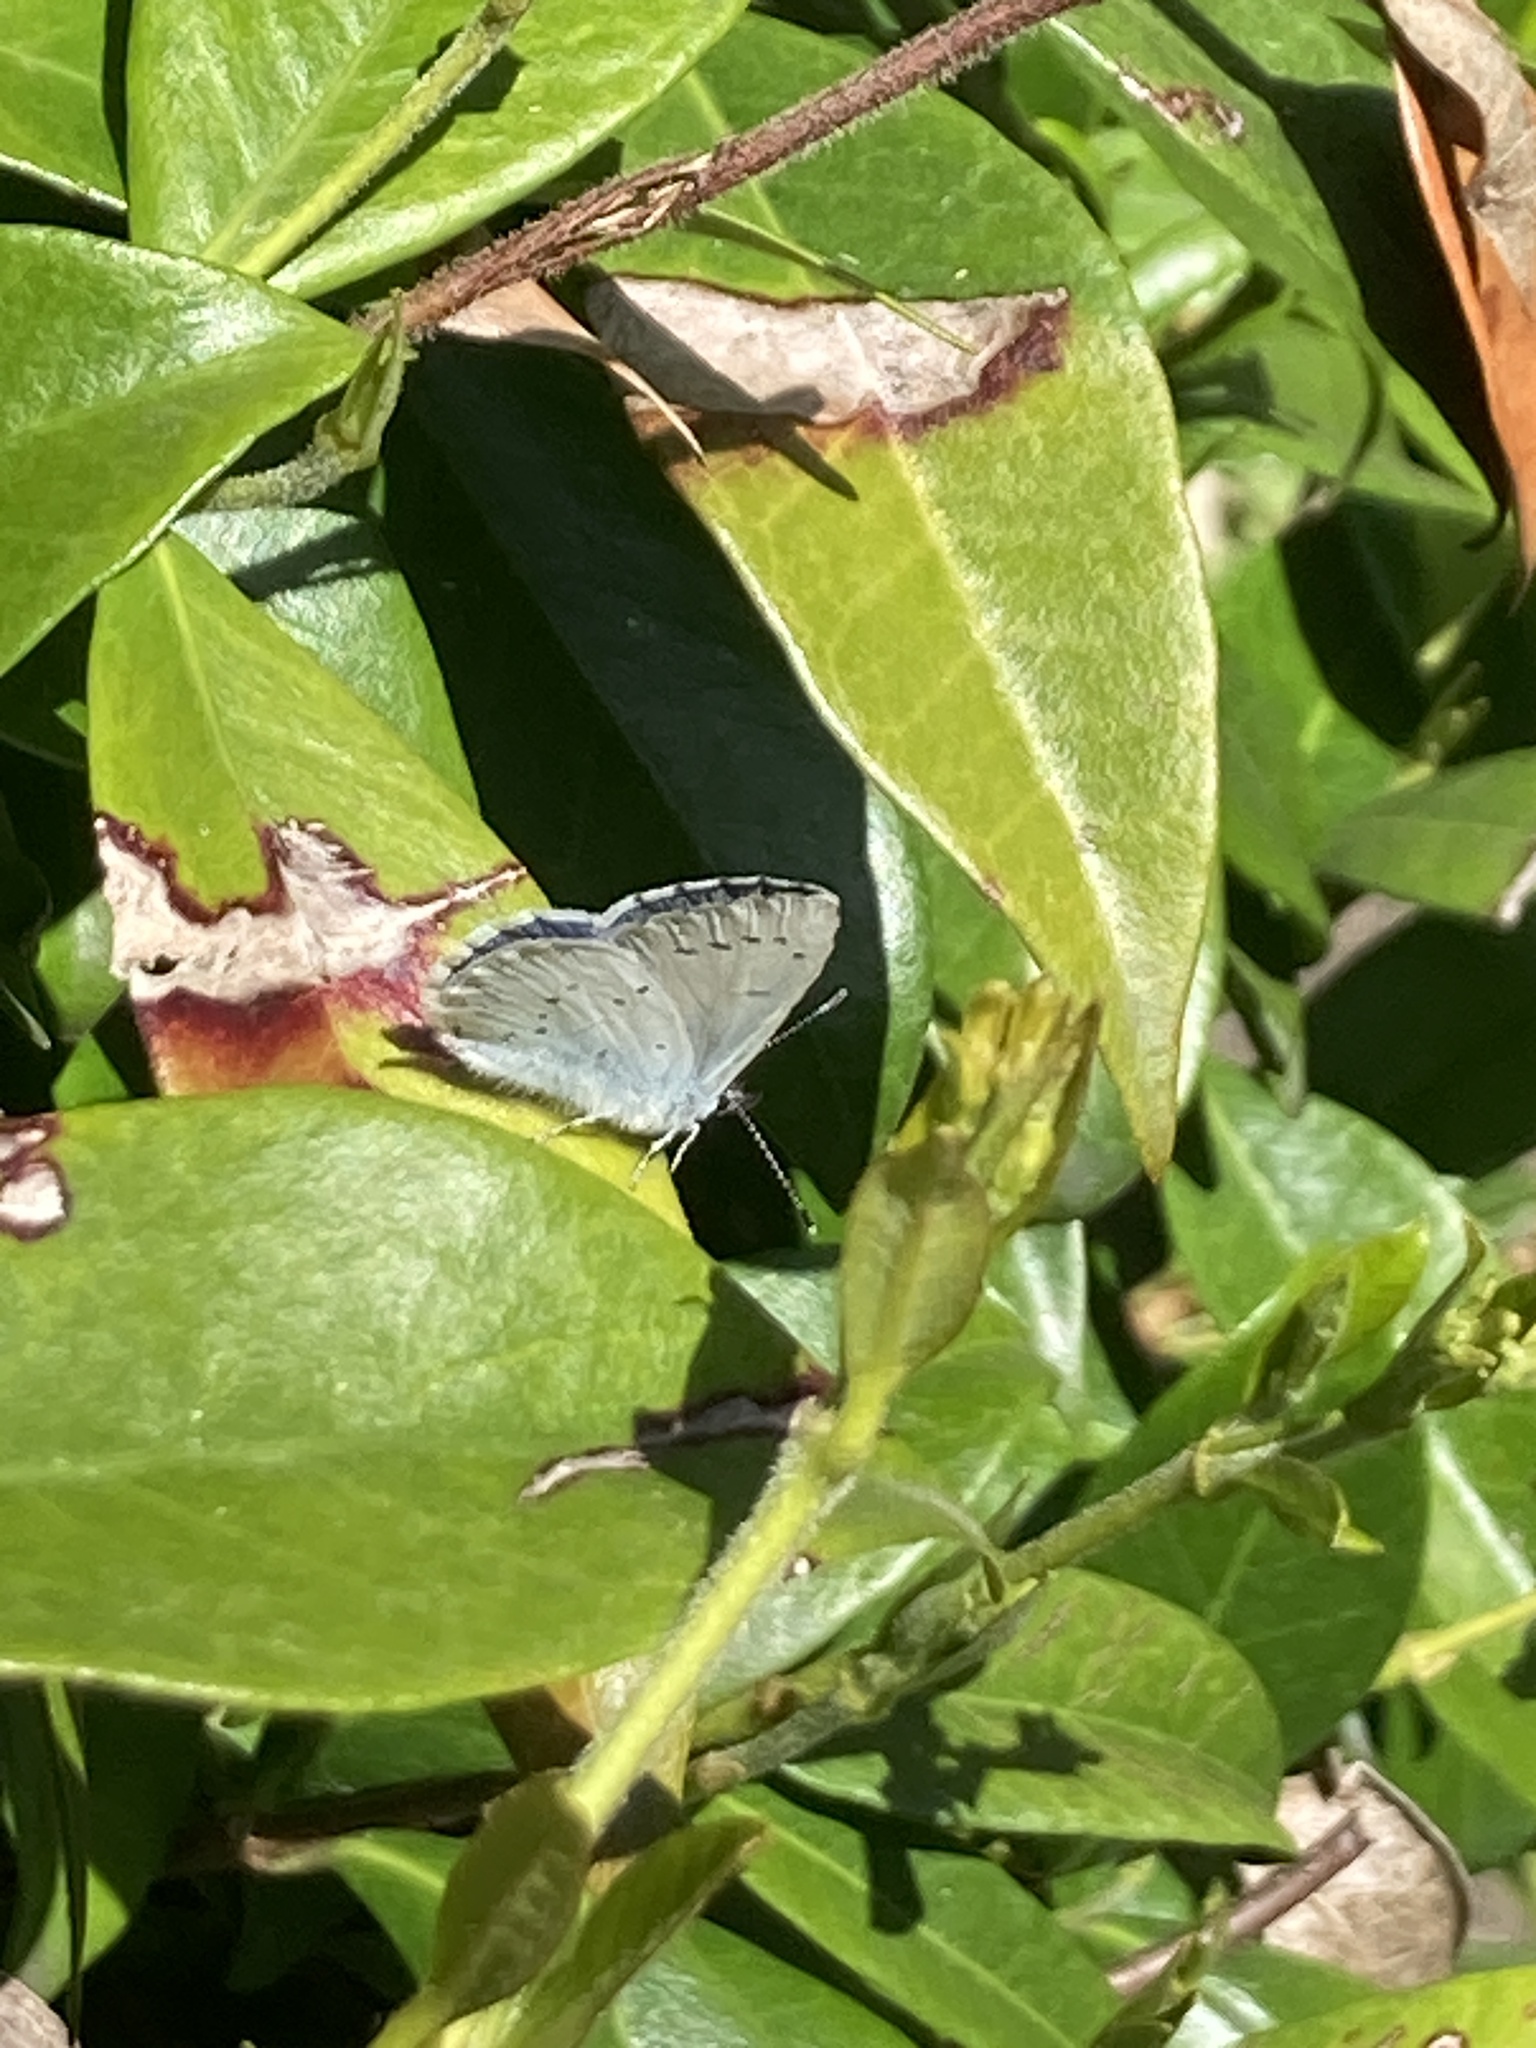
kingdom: Animalia
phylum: Arthropoda
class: Insecta
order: Lepidoptera
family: Lycaenidae
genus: Celastrina
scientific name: Celastrina argiolus
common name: Holly blue
